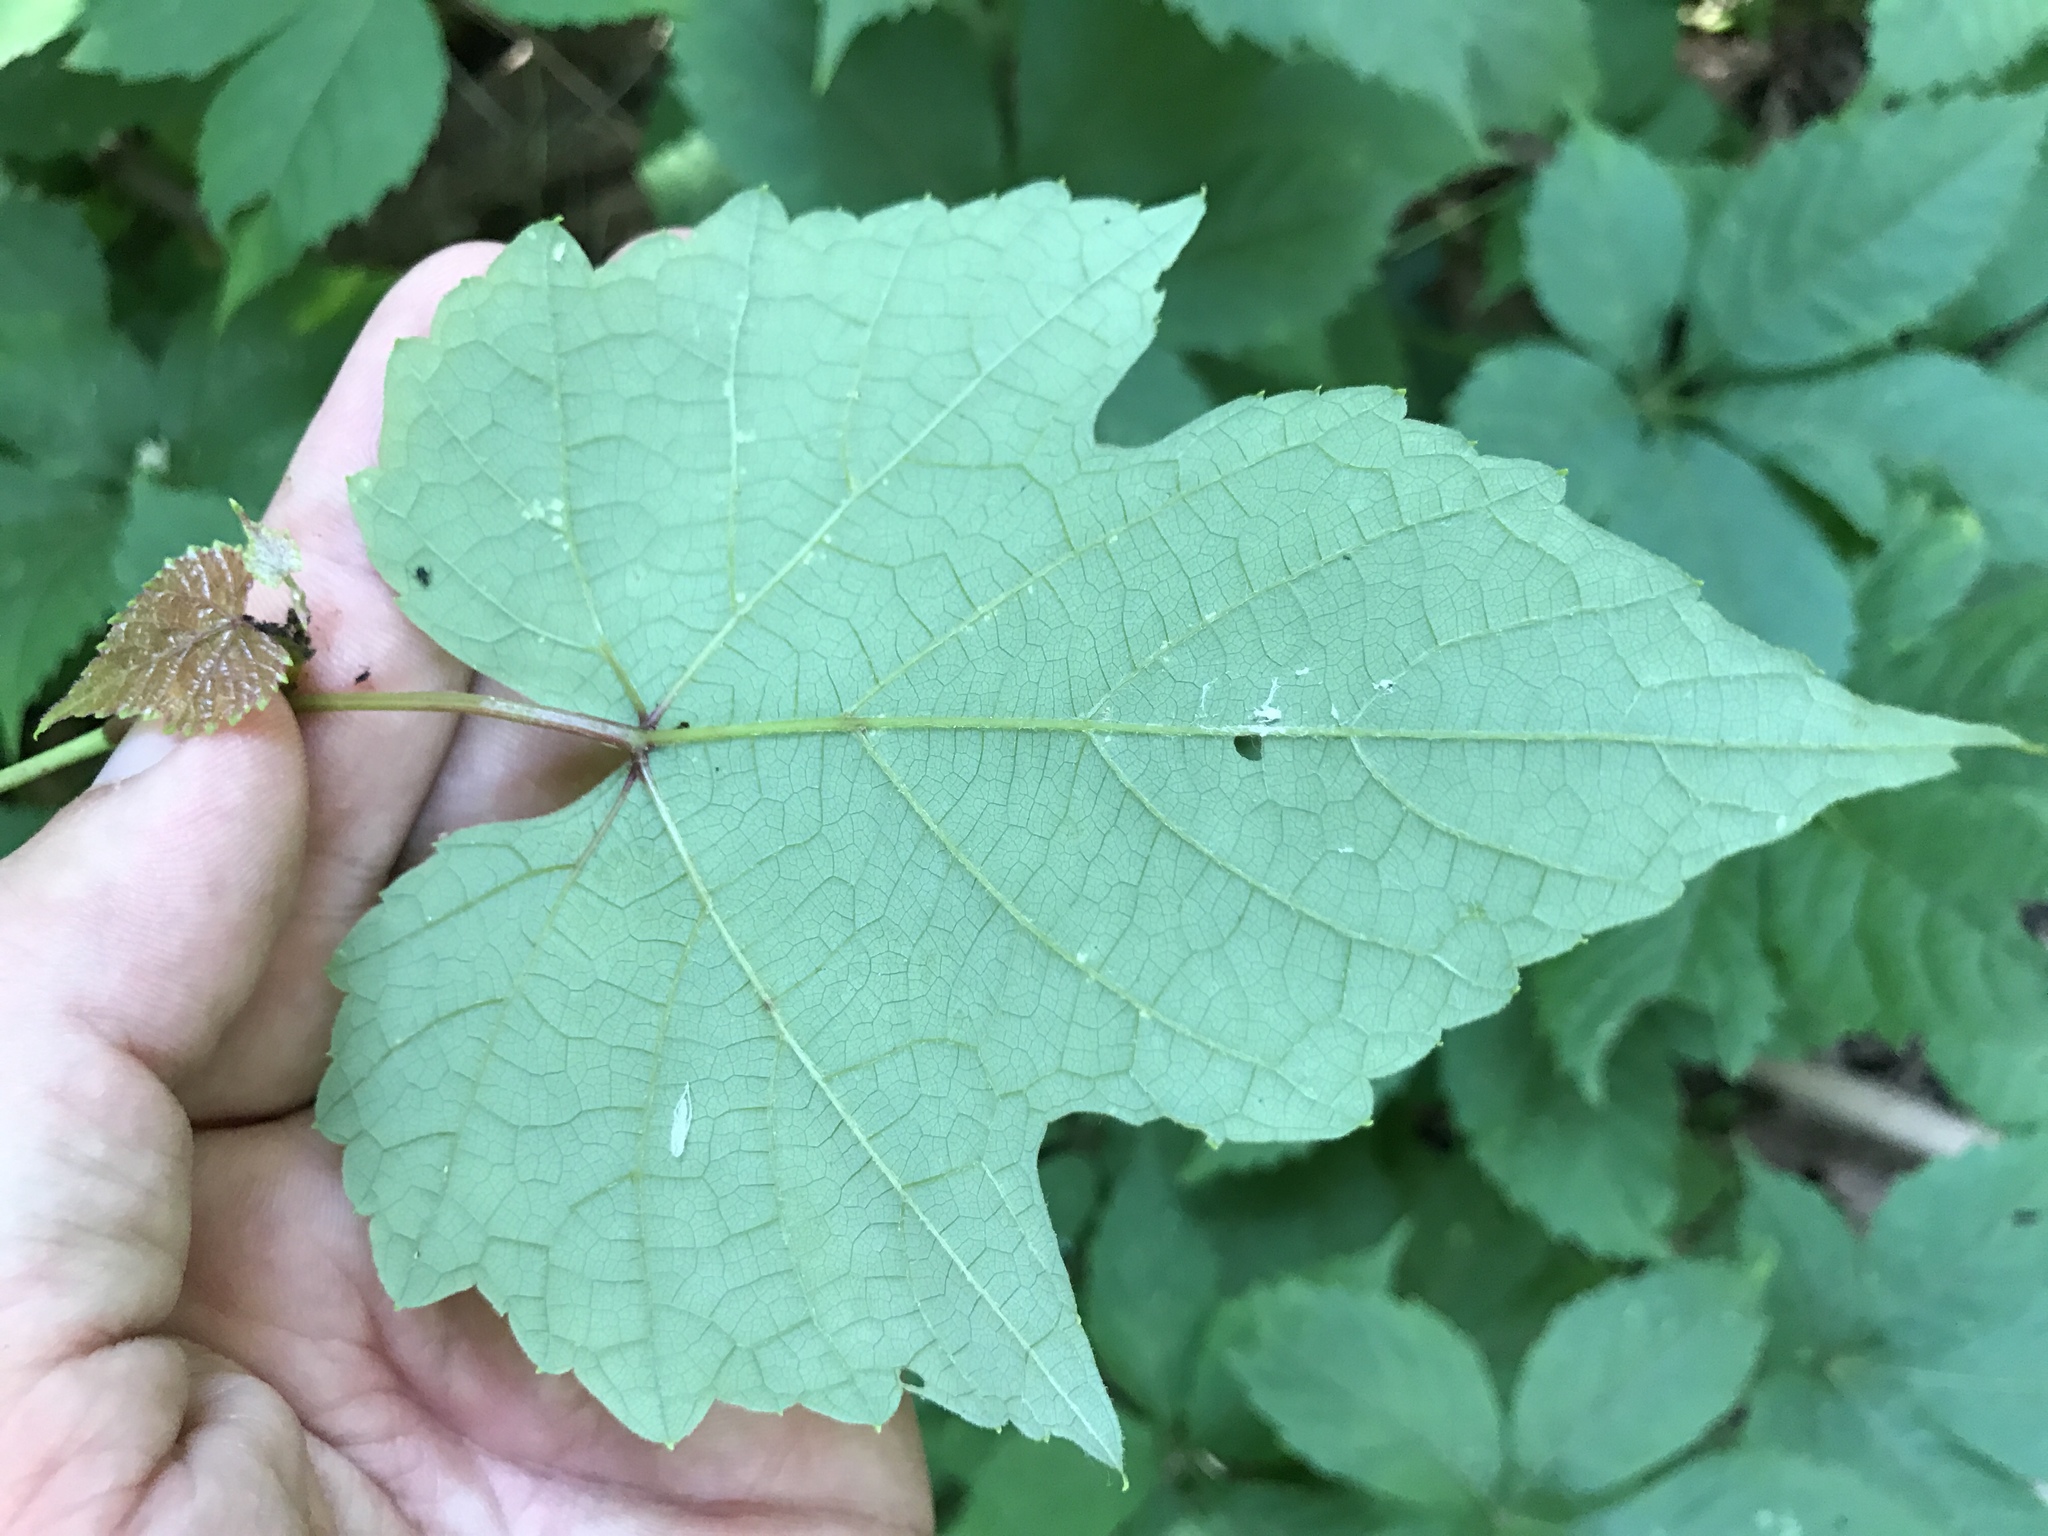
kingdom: Plantae
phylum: Tracheophyta
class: Magnoliopsida
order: Vitales
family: Vitaceae
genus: Vitis
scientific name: Vitis aestivalis
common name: Pigeon grape
